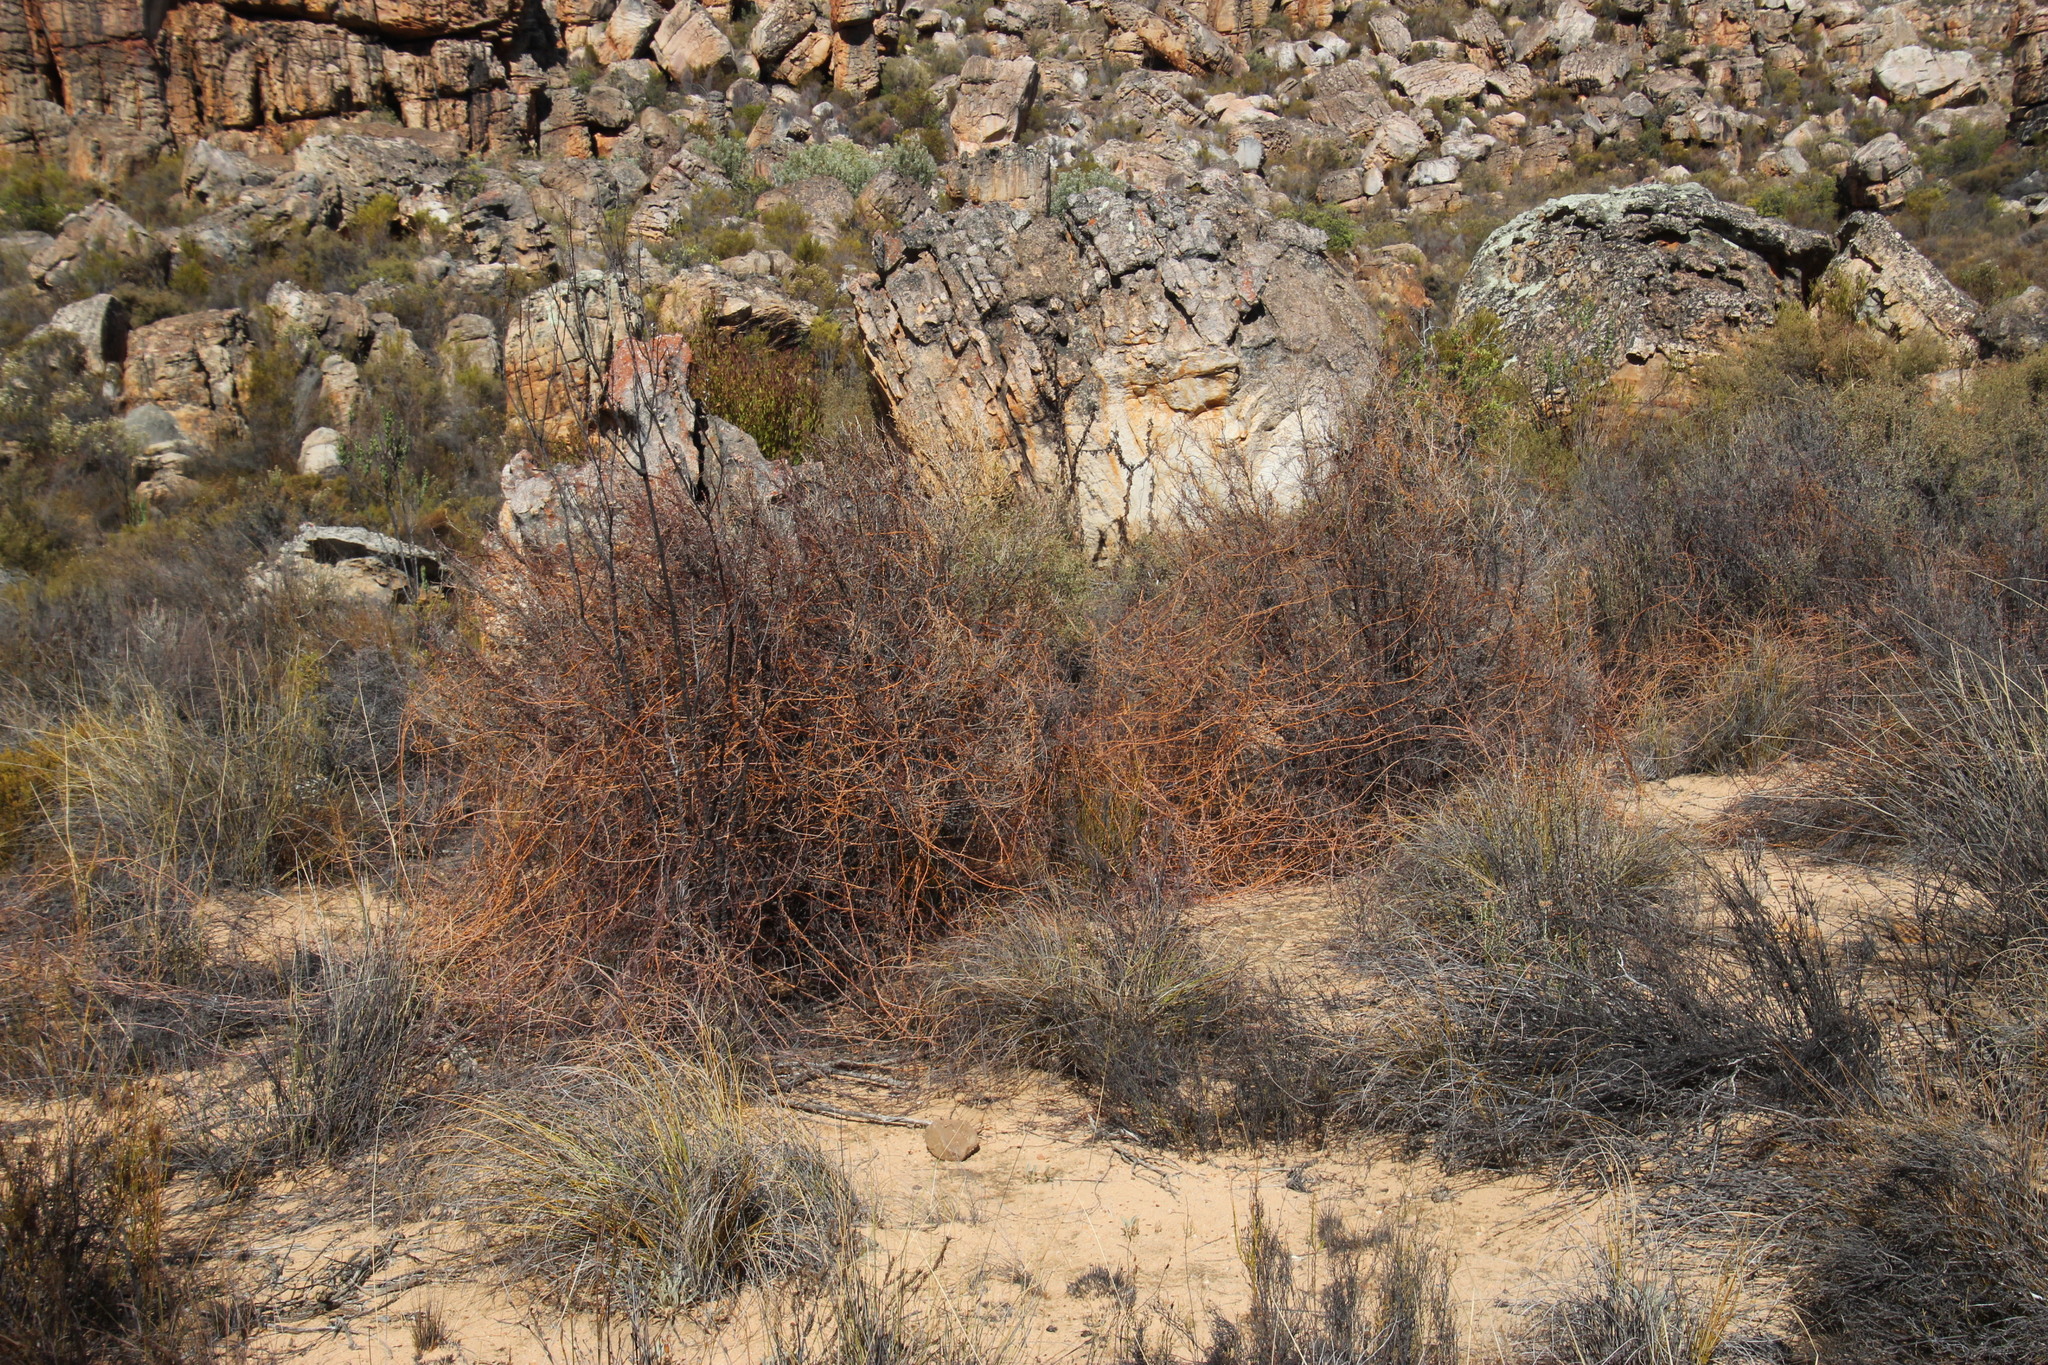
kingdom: Plantae
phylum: Tracheophyta
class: Magnoliopsida
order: Laurales
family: Lauraceae
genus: Cassytha
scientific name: Cassytha ciliolata
